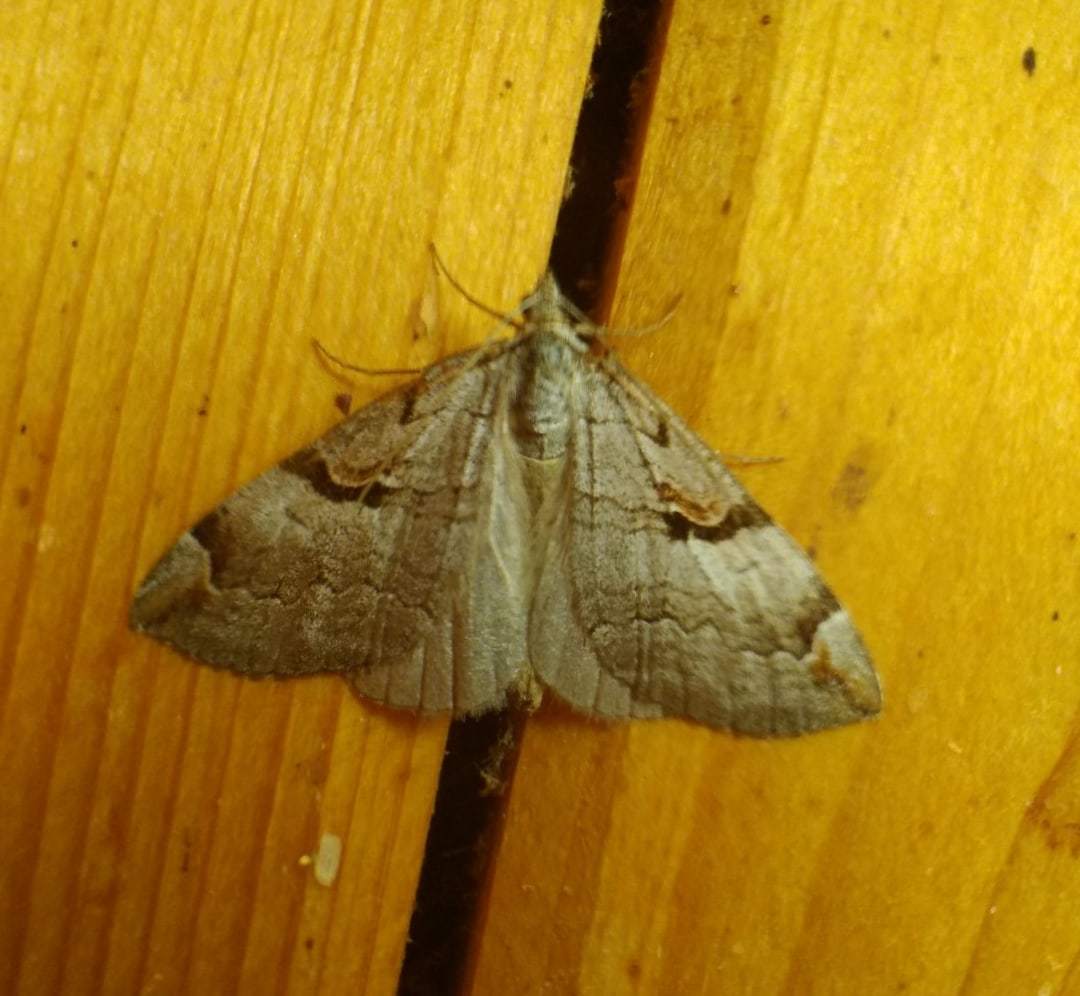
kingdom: Animalia
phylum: Arthropoda
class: Insecta
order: Lepidoptera
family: Geometridae
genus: Aplocera
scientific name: Aplocera praeformata
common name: Purple treble-bar
